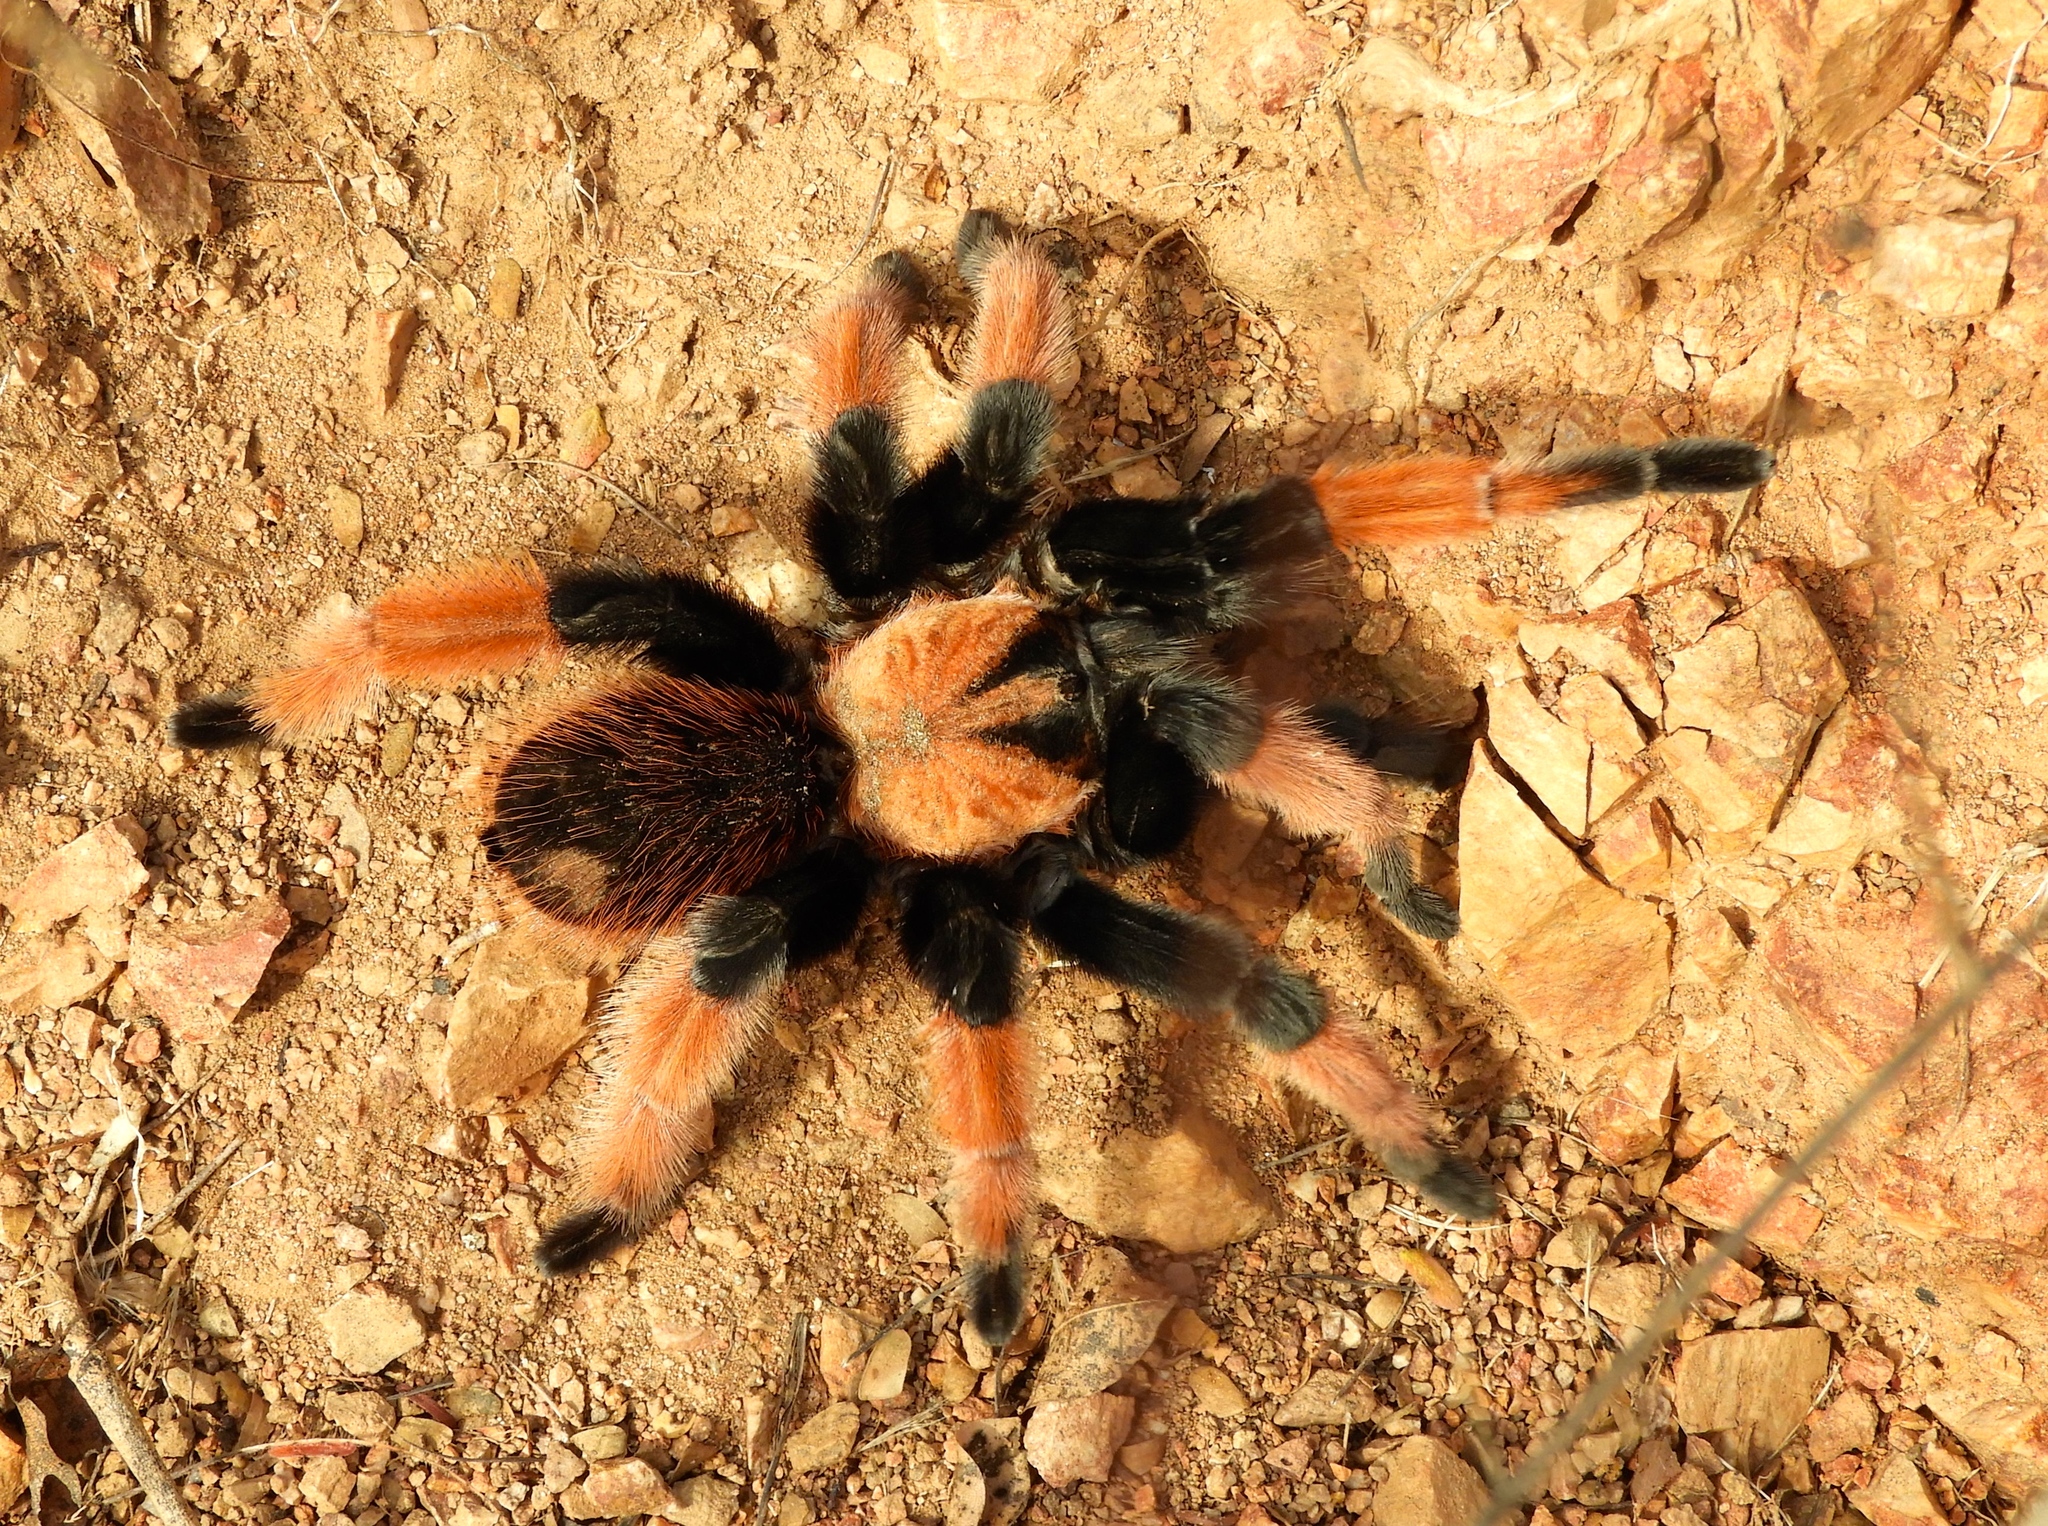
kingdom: Animalia
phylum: Arthropoda
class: Arachnida
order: Araneae
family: Theraphosidae
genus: Brachypelma
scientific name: Brachypelma emilia
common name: Mexican redleg
